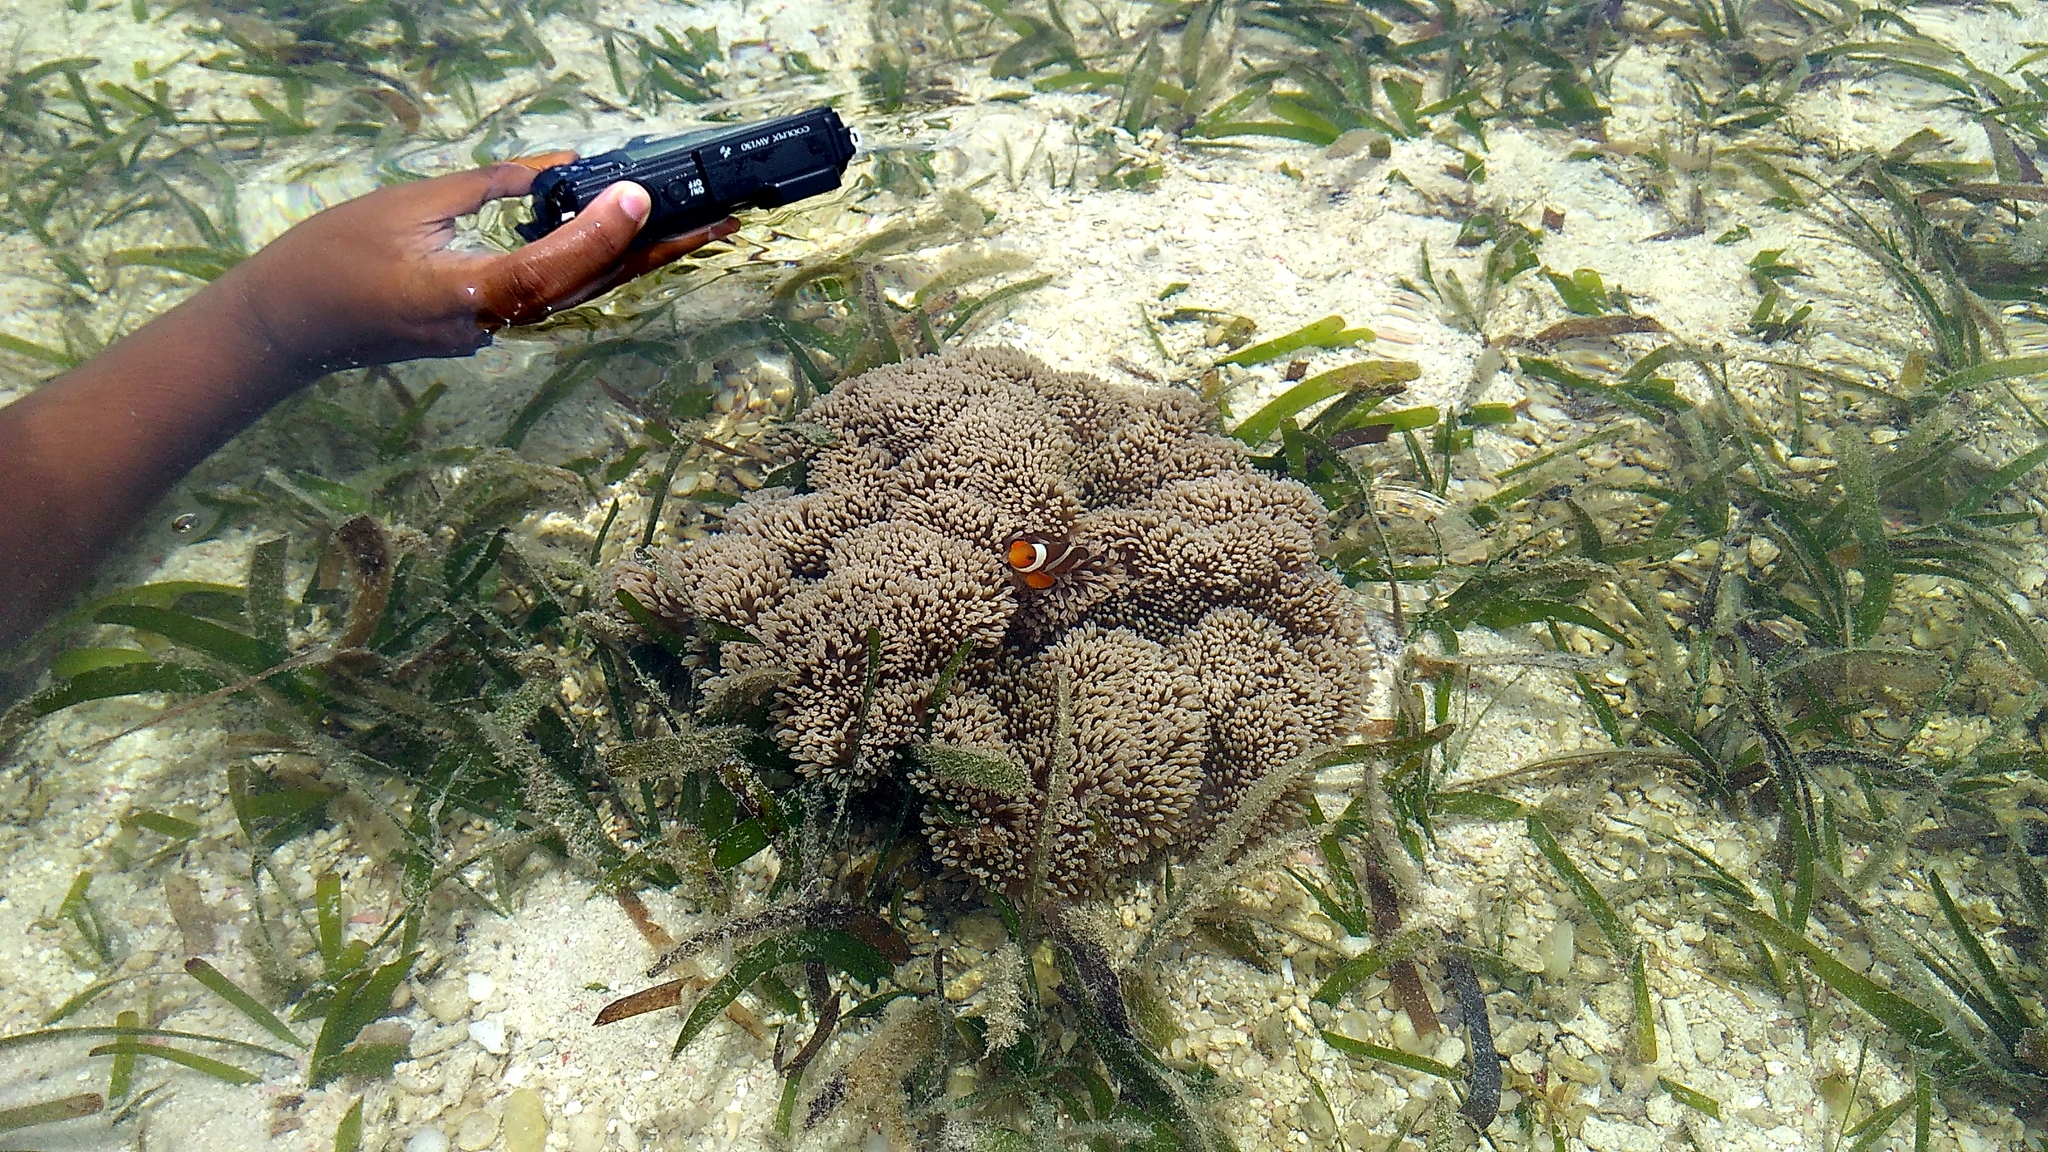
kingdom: Animalia
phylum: Cnidaria
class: Anthozoa
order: Actiniaria
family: Stichodactylidae
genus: Stichodactyla
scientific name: Stichodactyla gigantea
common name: Giant anemone
